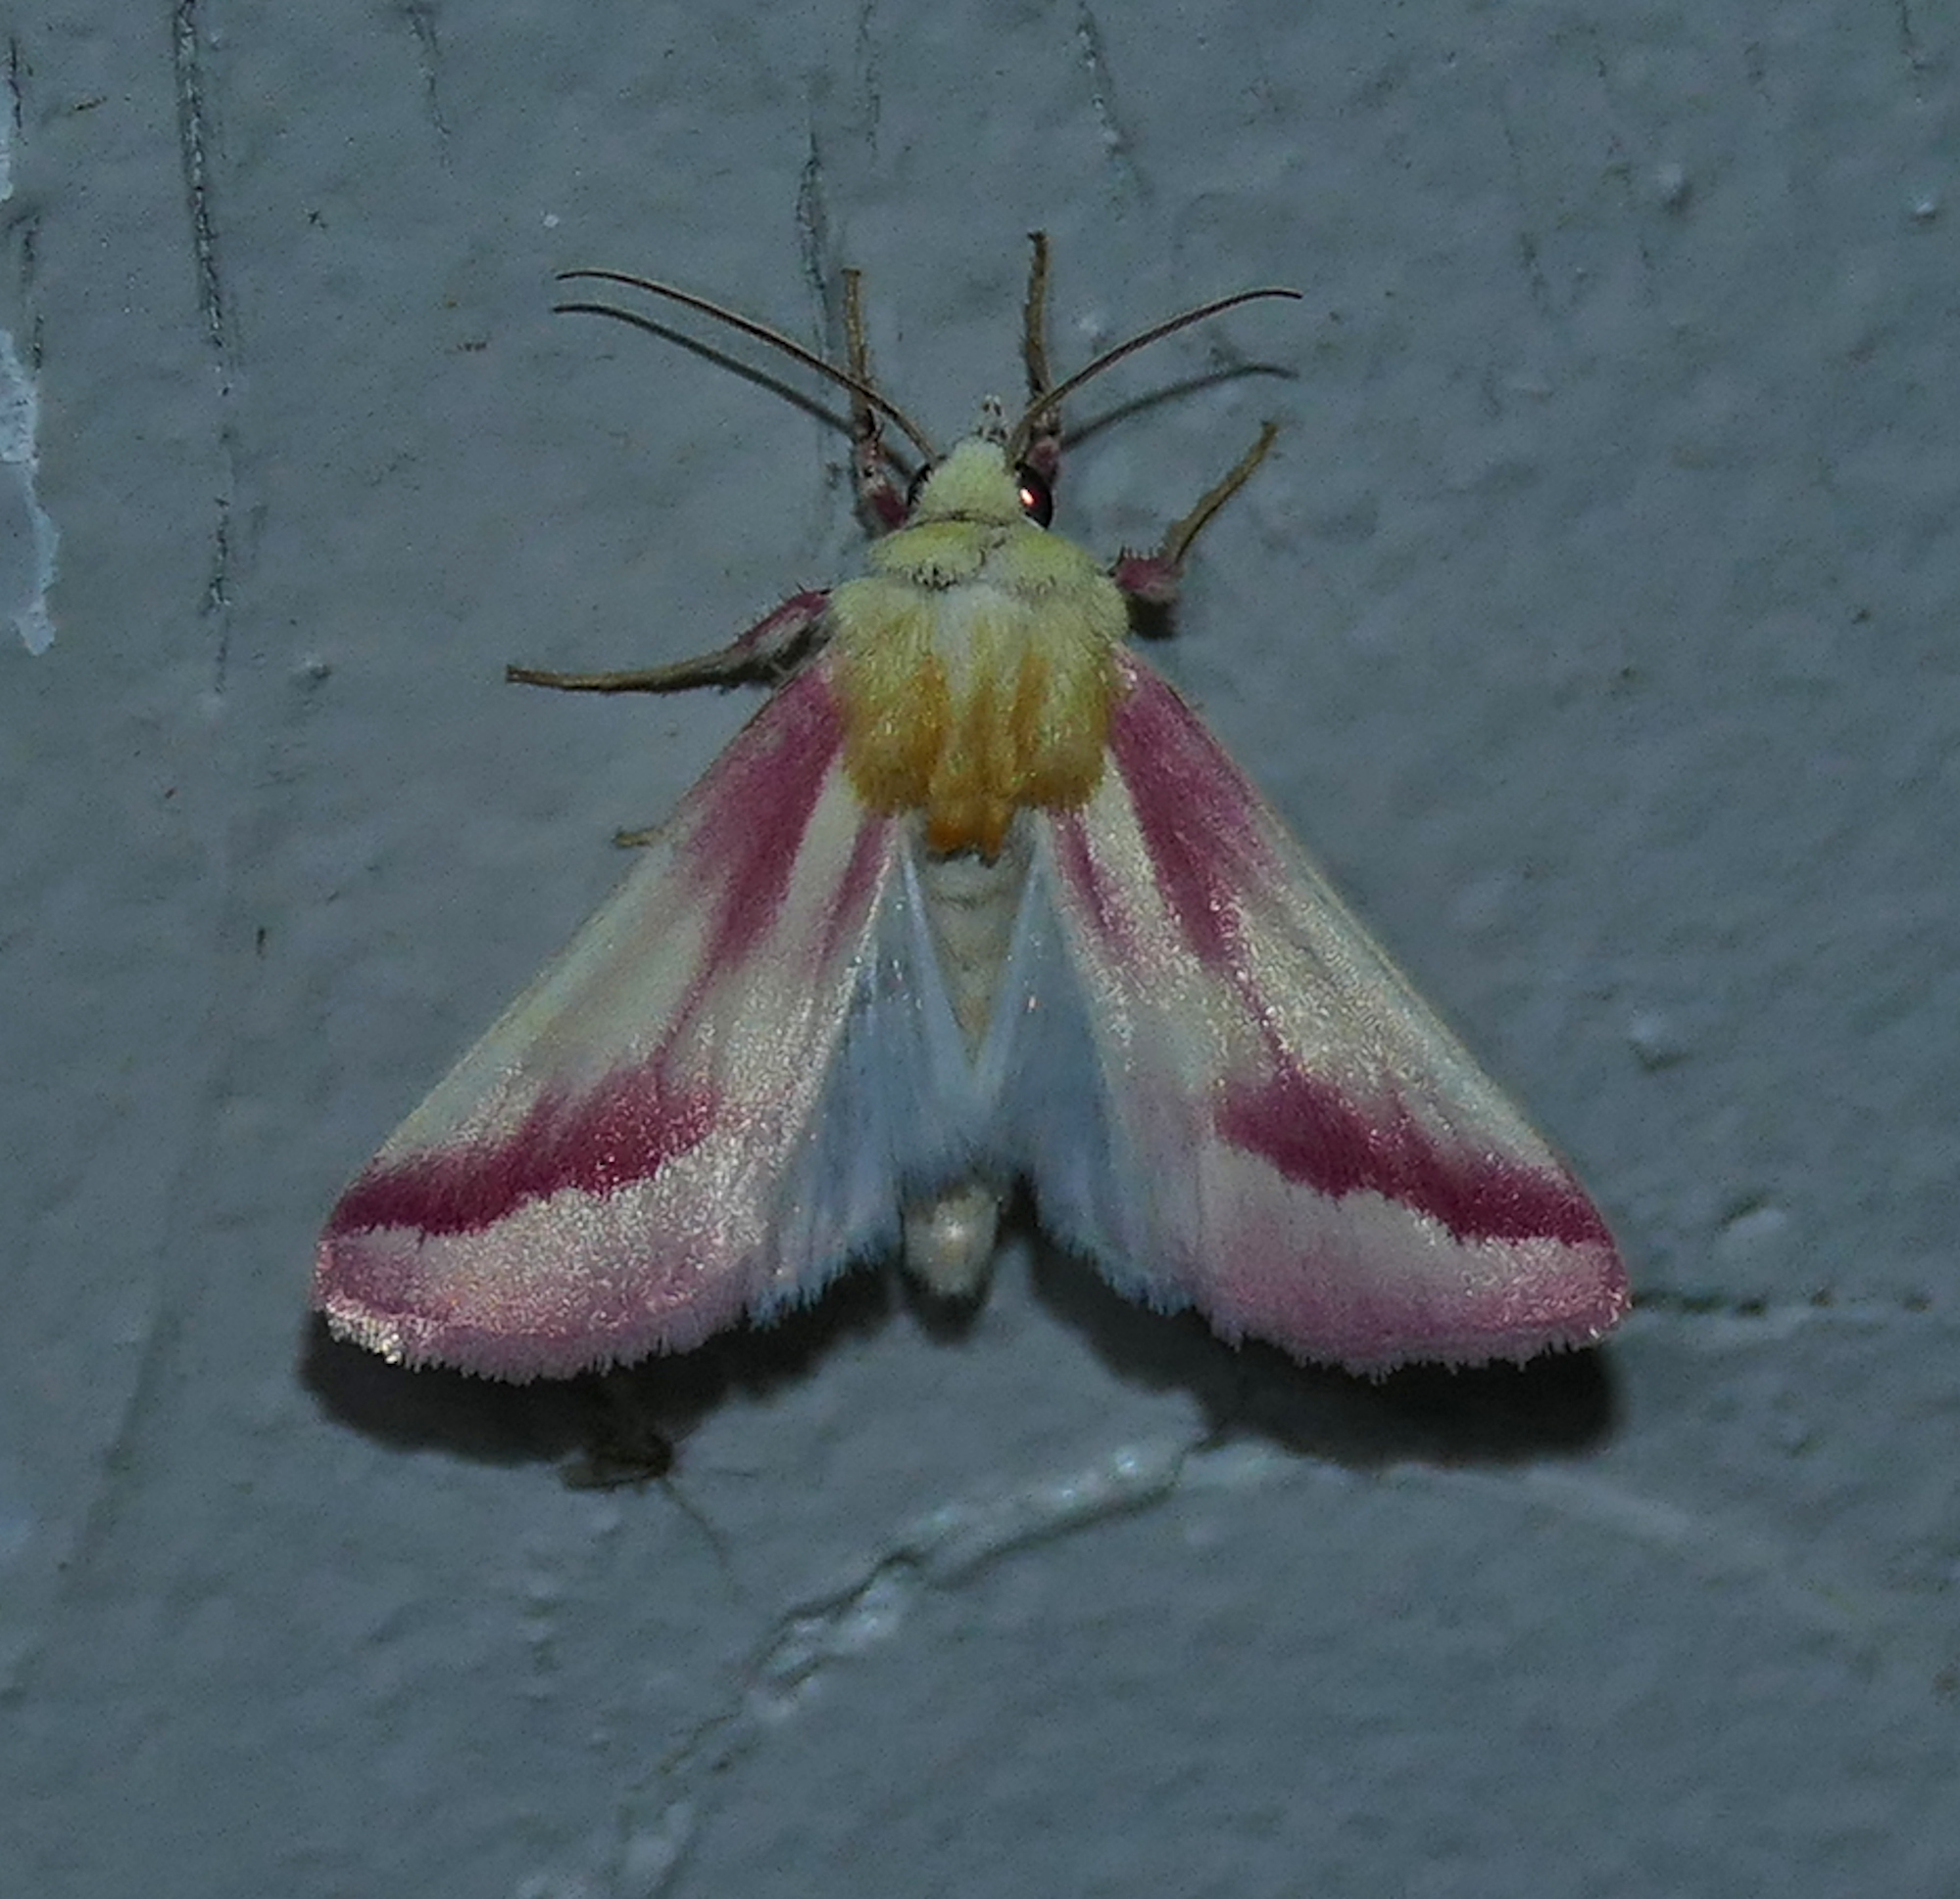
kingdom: Animalia
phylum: Arthropoda
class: Insecta
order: Lepidoptera
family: Noctuidae
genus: Schinia
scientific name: Schinia gaurae
